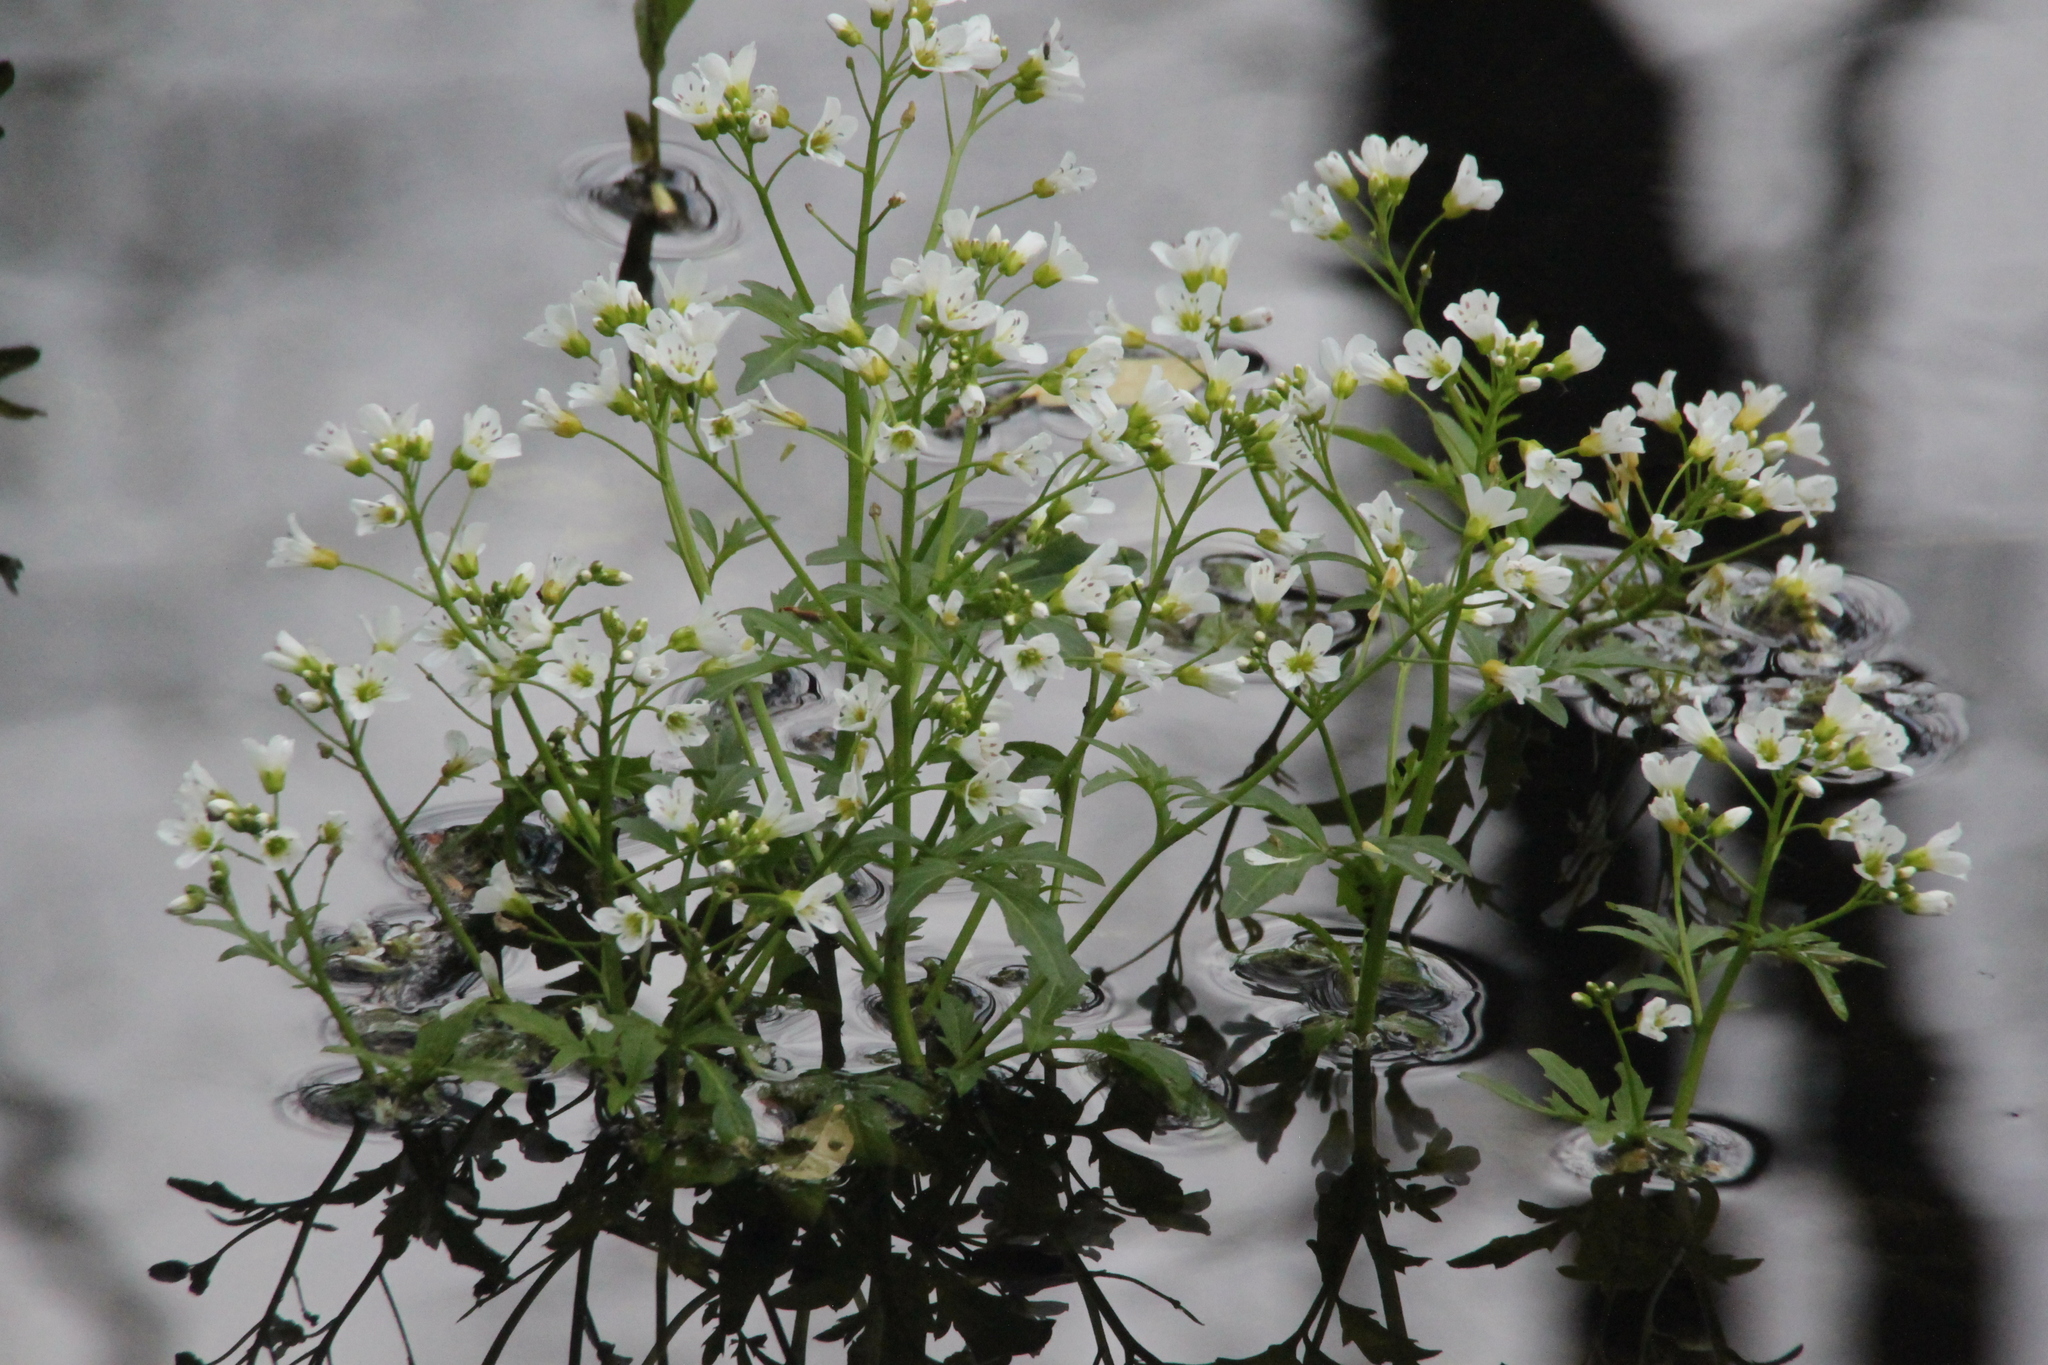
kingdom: Plantae
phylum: Tracheophyta
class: Magnoliopsida
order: Brassicales
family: Brassicaceae
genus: Cardamine
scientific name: Cardamine amara
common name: Large bitter-cress
